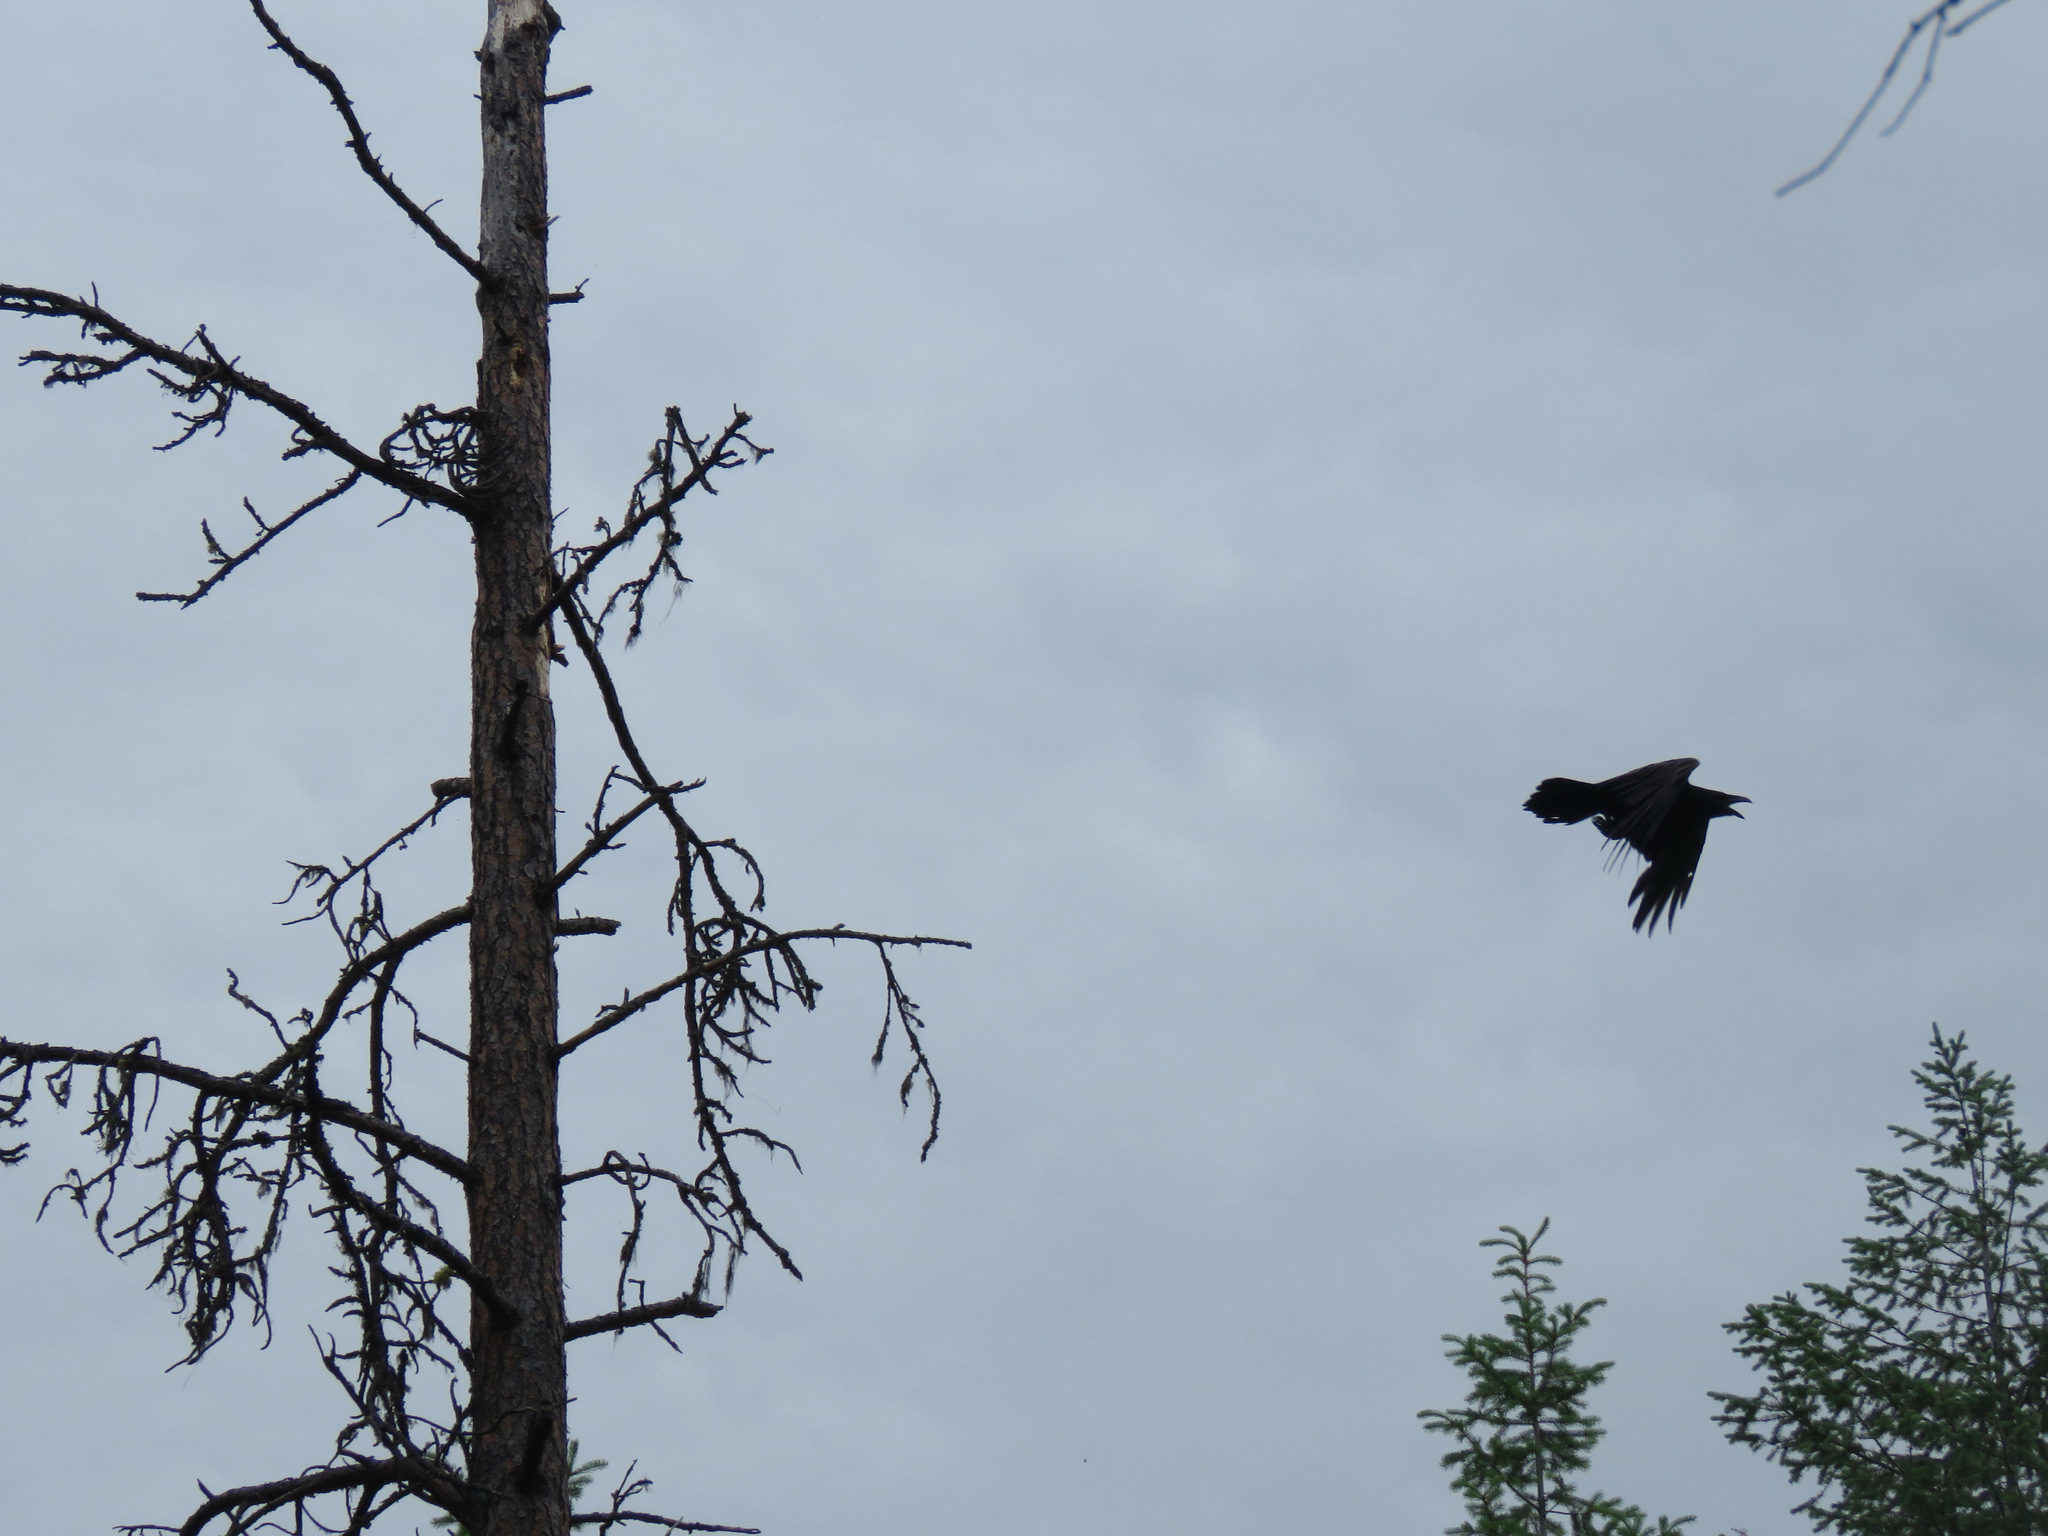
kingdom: Animalia
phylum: Chordata
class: Aves
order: Passeriformes
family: Corvidae
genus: Corvus
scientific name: Corvus corax
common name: Common raven
